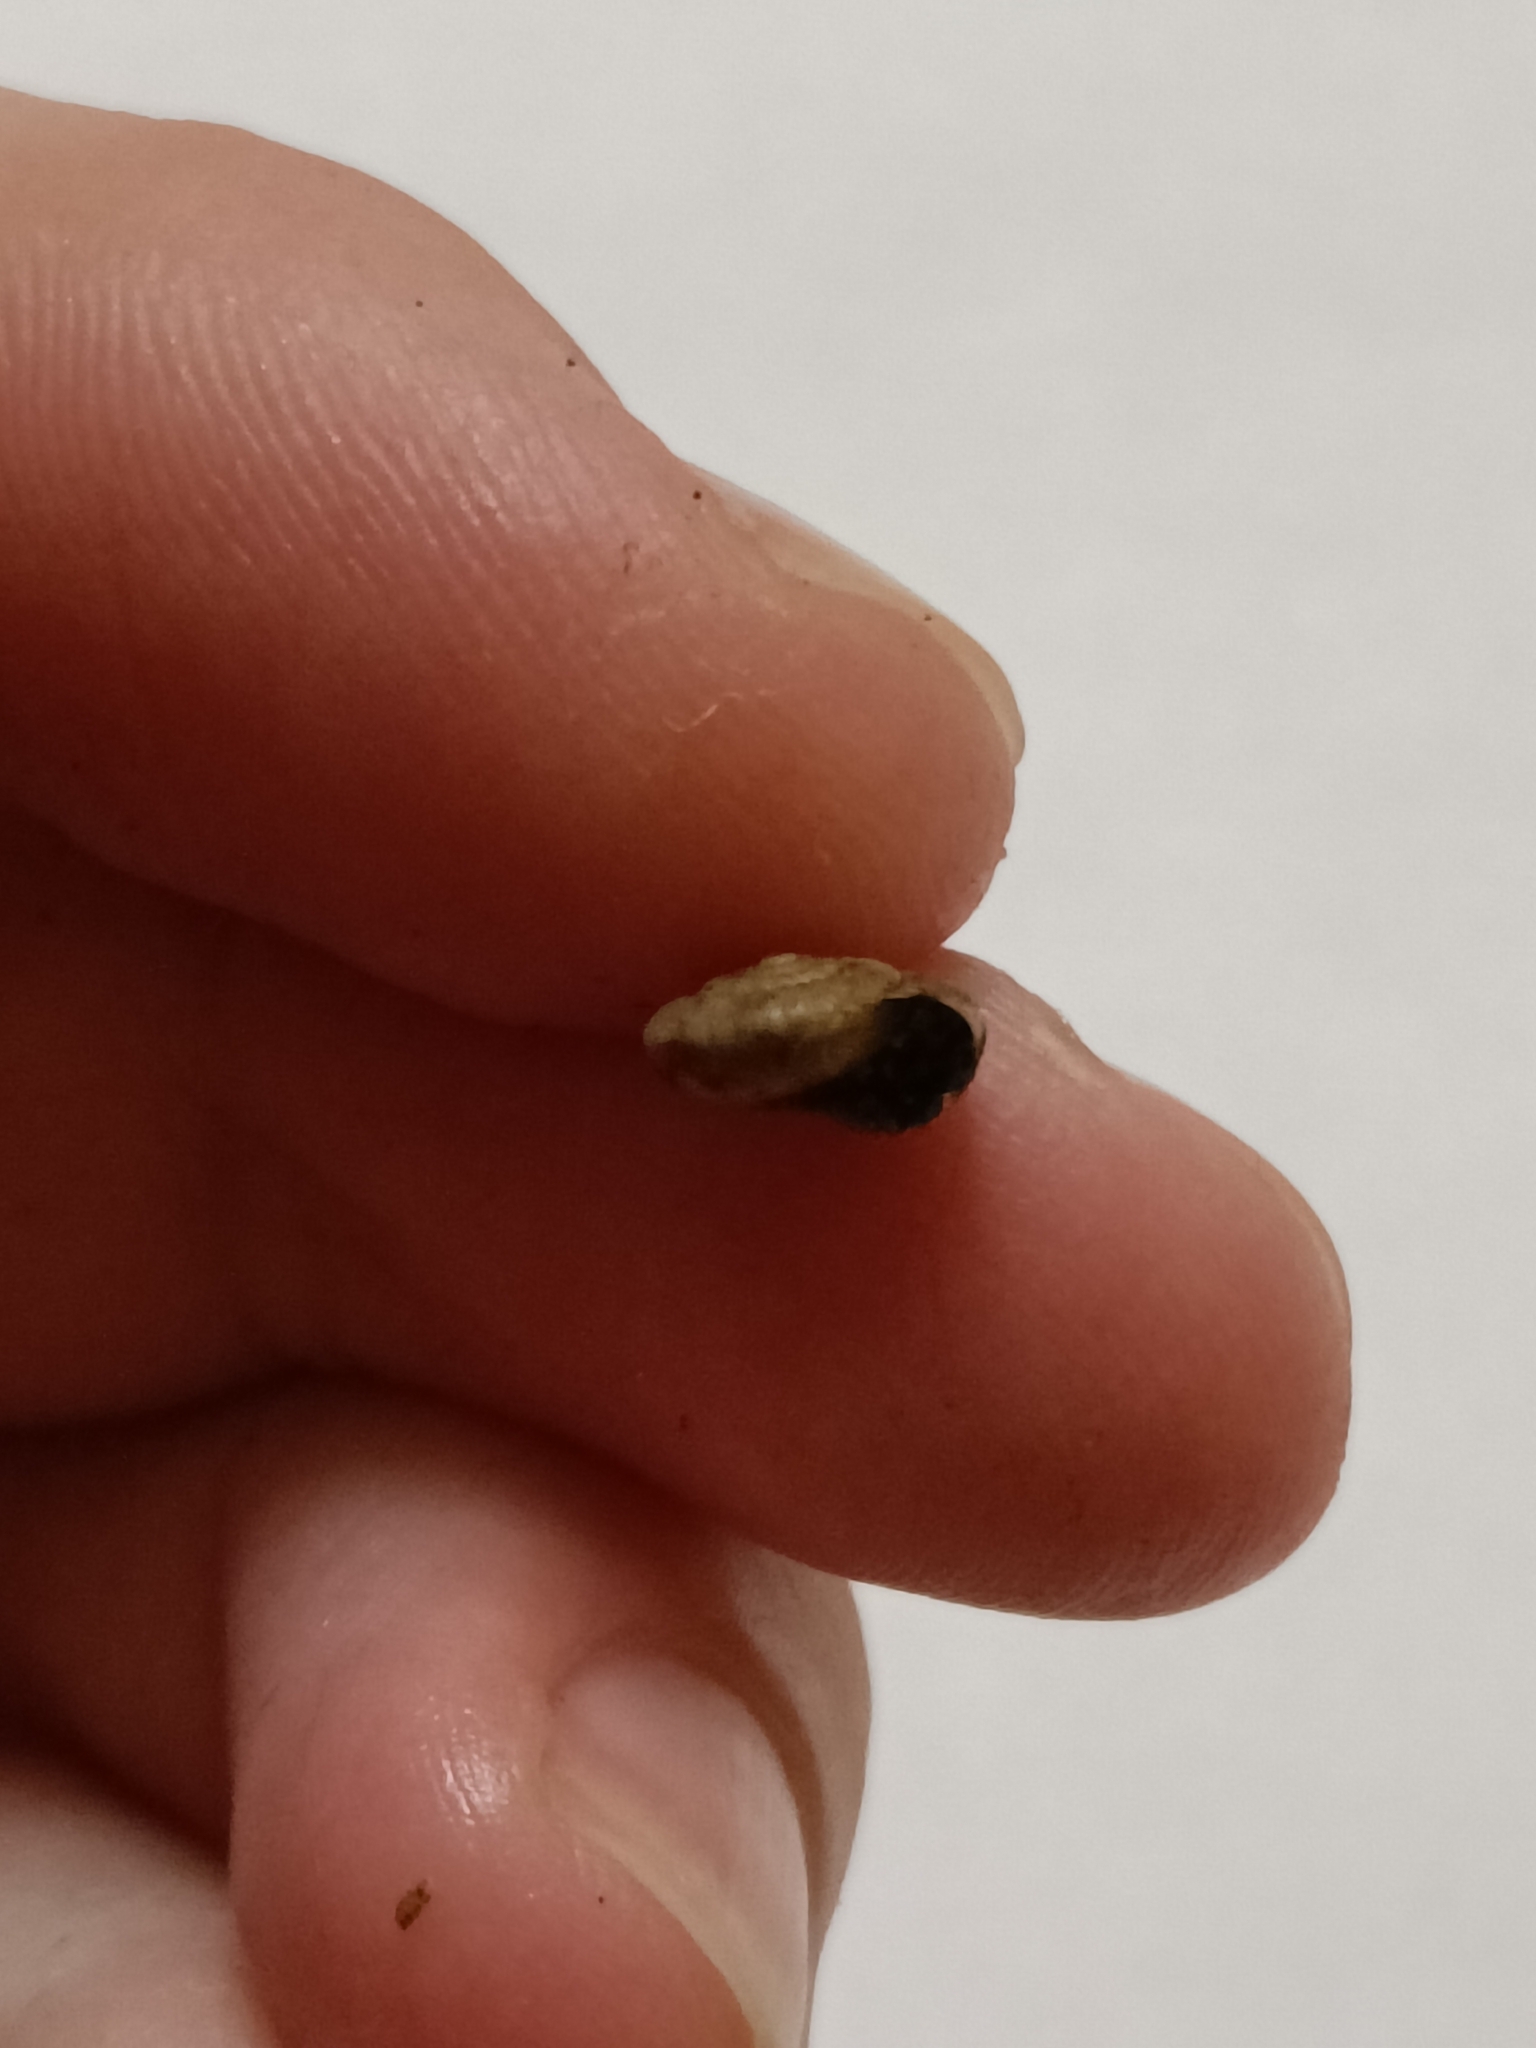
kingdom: Animalia
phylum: Mollusca
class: Gastropoda
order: Stylommatophora
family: Hygromiidae
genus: Trochulus
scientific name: Trochulus striolatus
